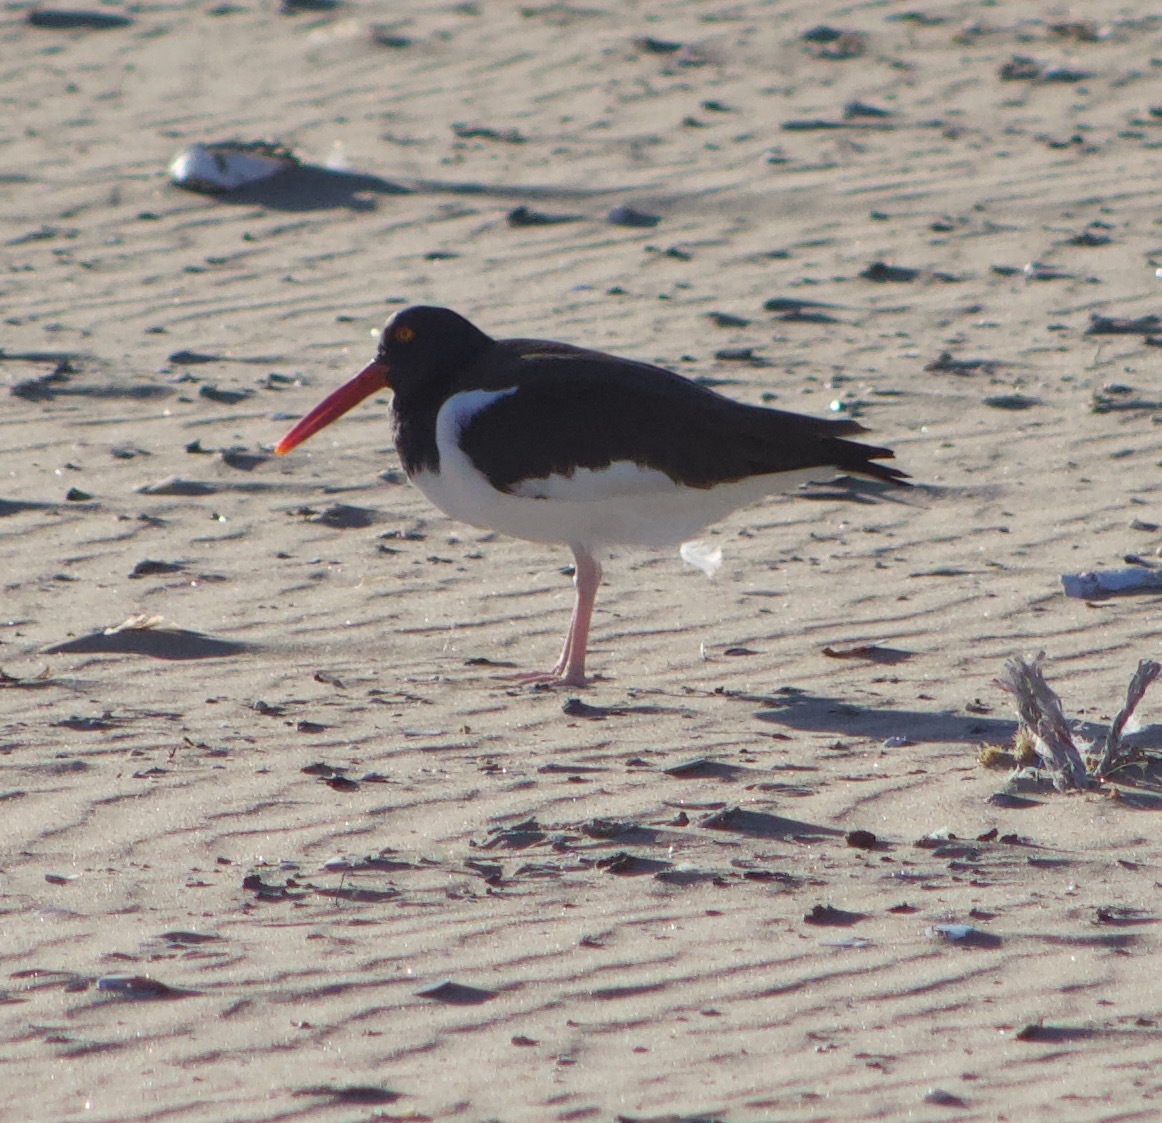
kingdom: Animalia
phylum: Chordata
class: Aves
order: Charadriiformes
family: Haematopodidae
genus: Haematopus
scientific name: Haematopus palliatus
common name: American oystercatcher
